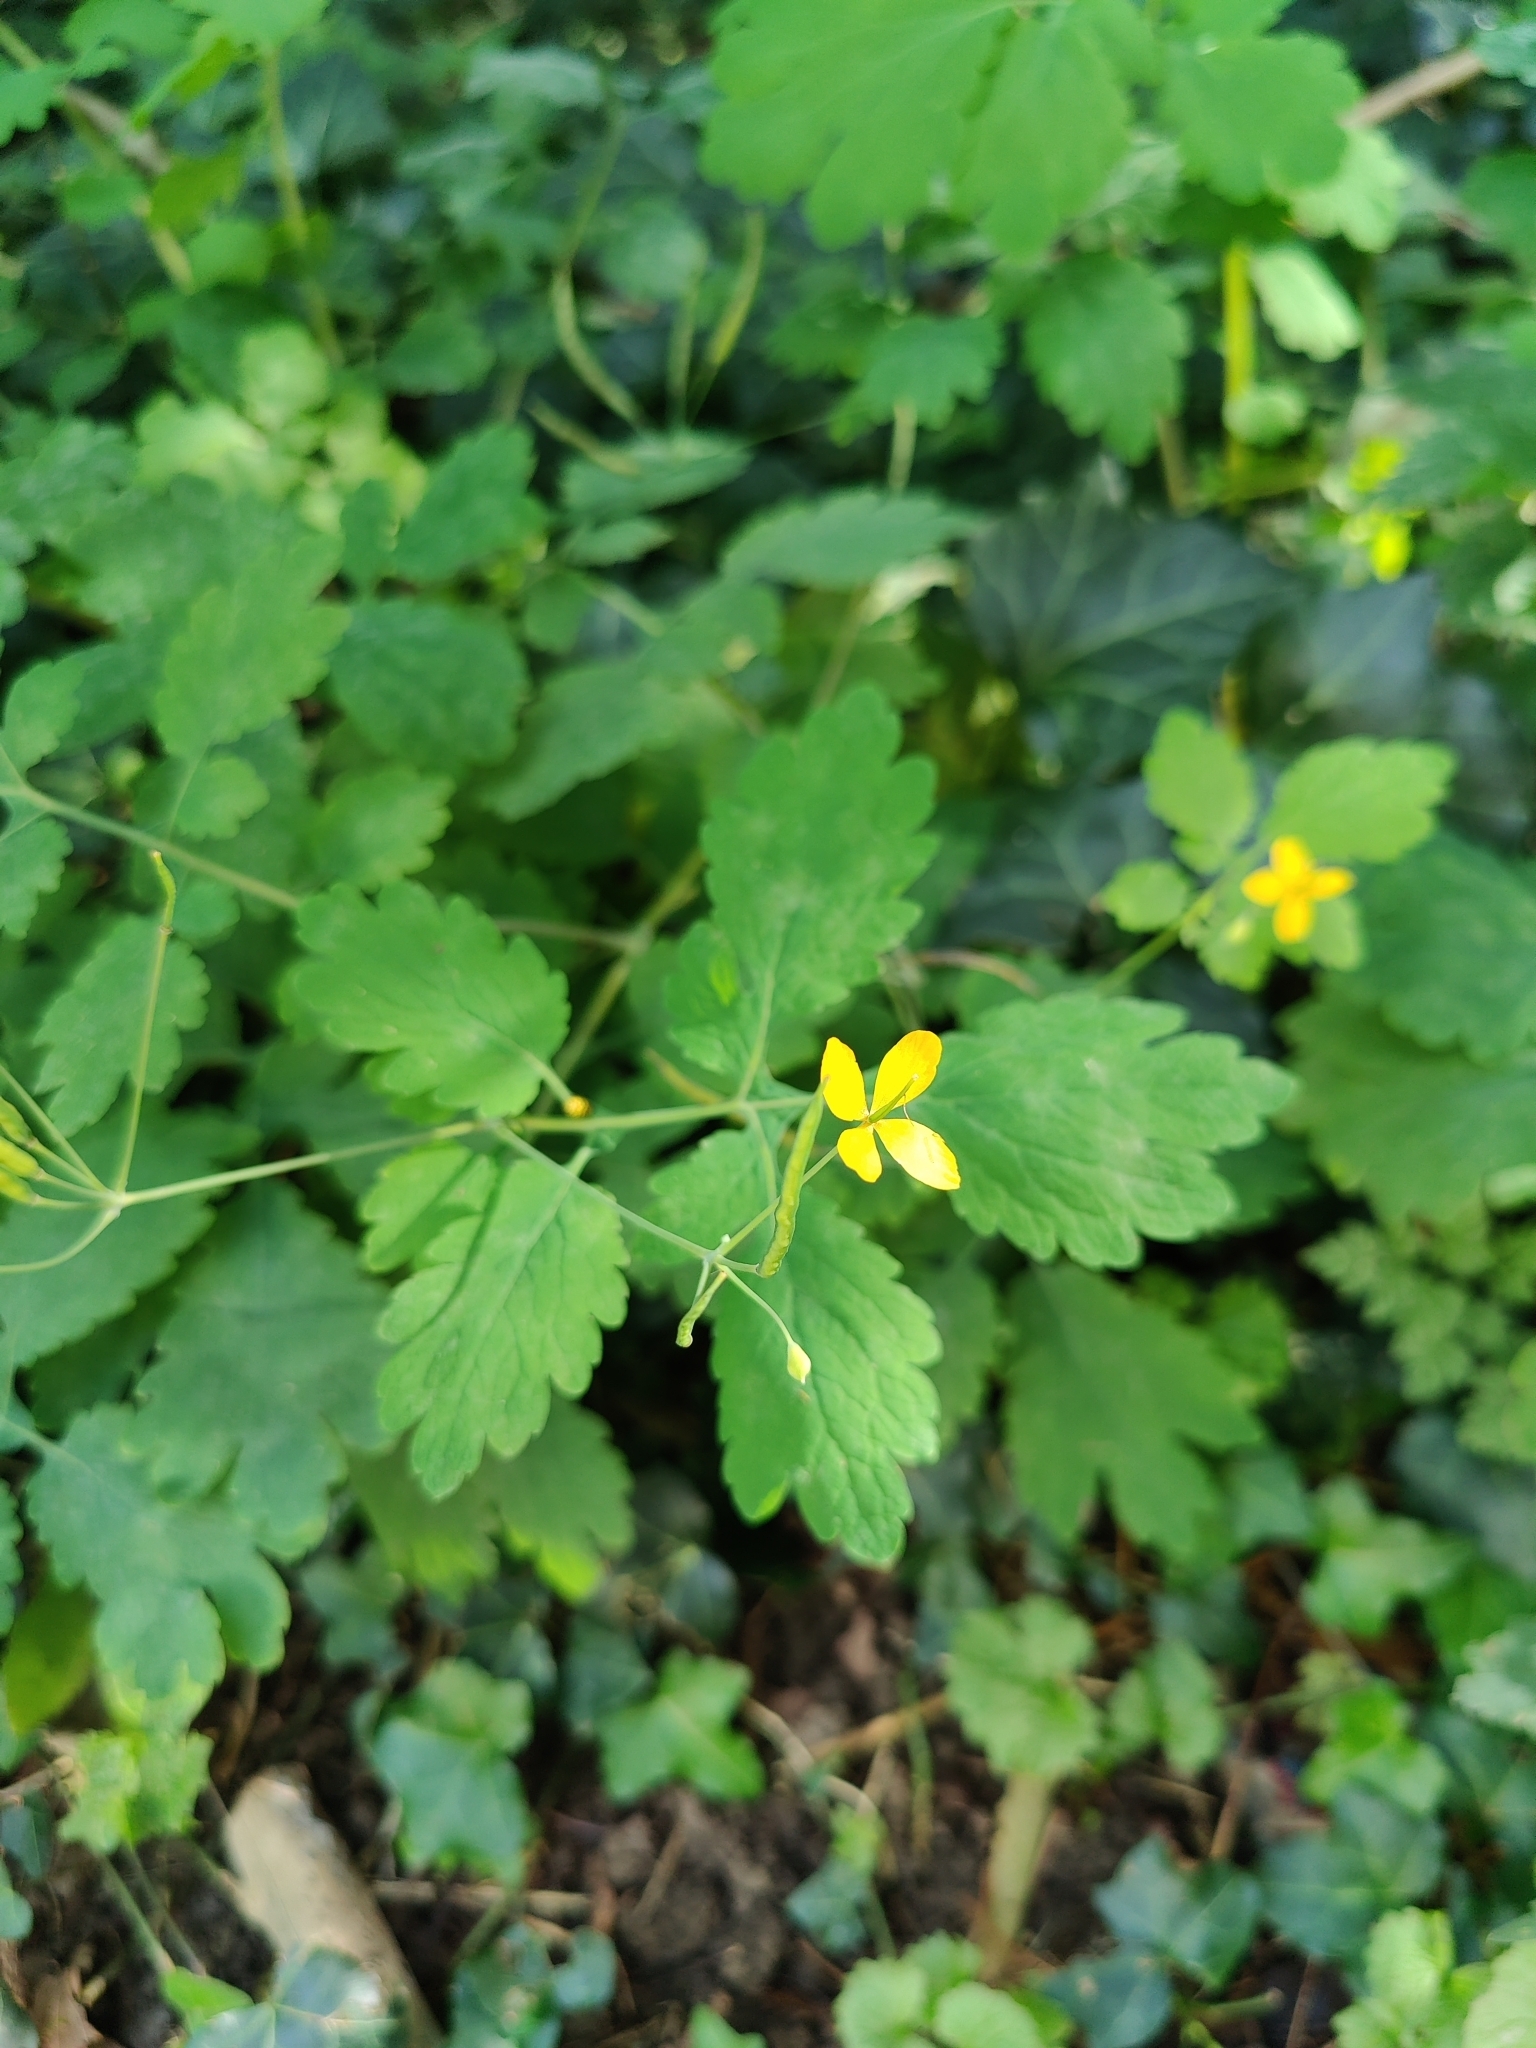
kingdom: Plantae
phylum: Tracheophyta
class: Magnoliopsida
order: Ranunculales
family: Papaveraceae
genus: Chelidonium
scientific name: Chelidonium majus
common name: Greater celandine
